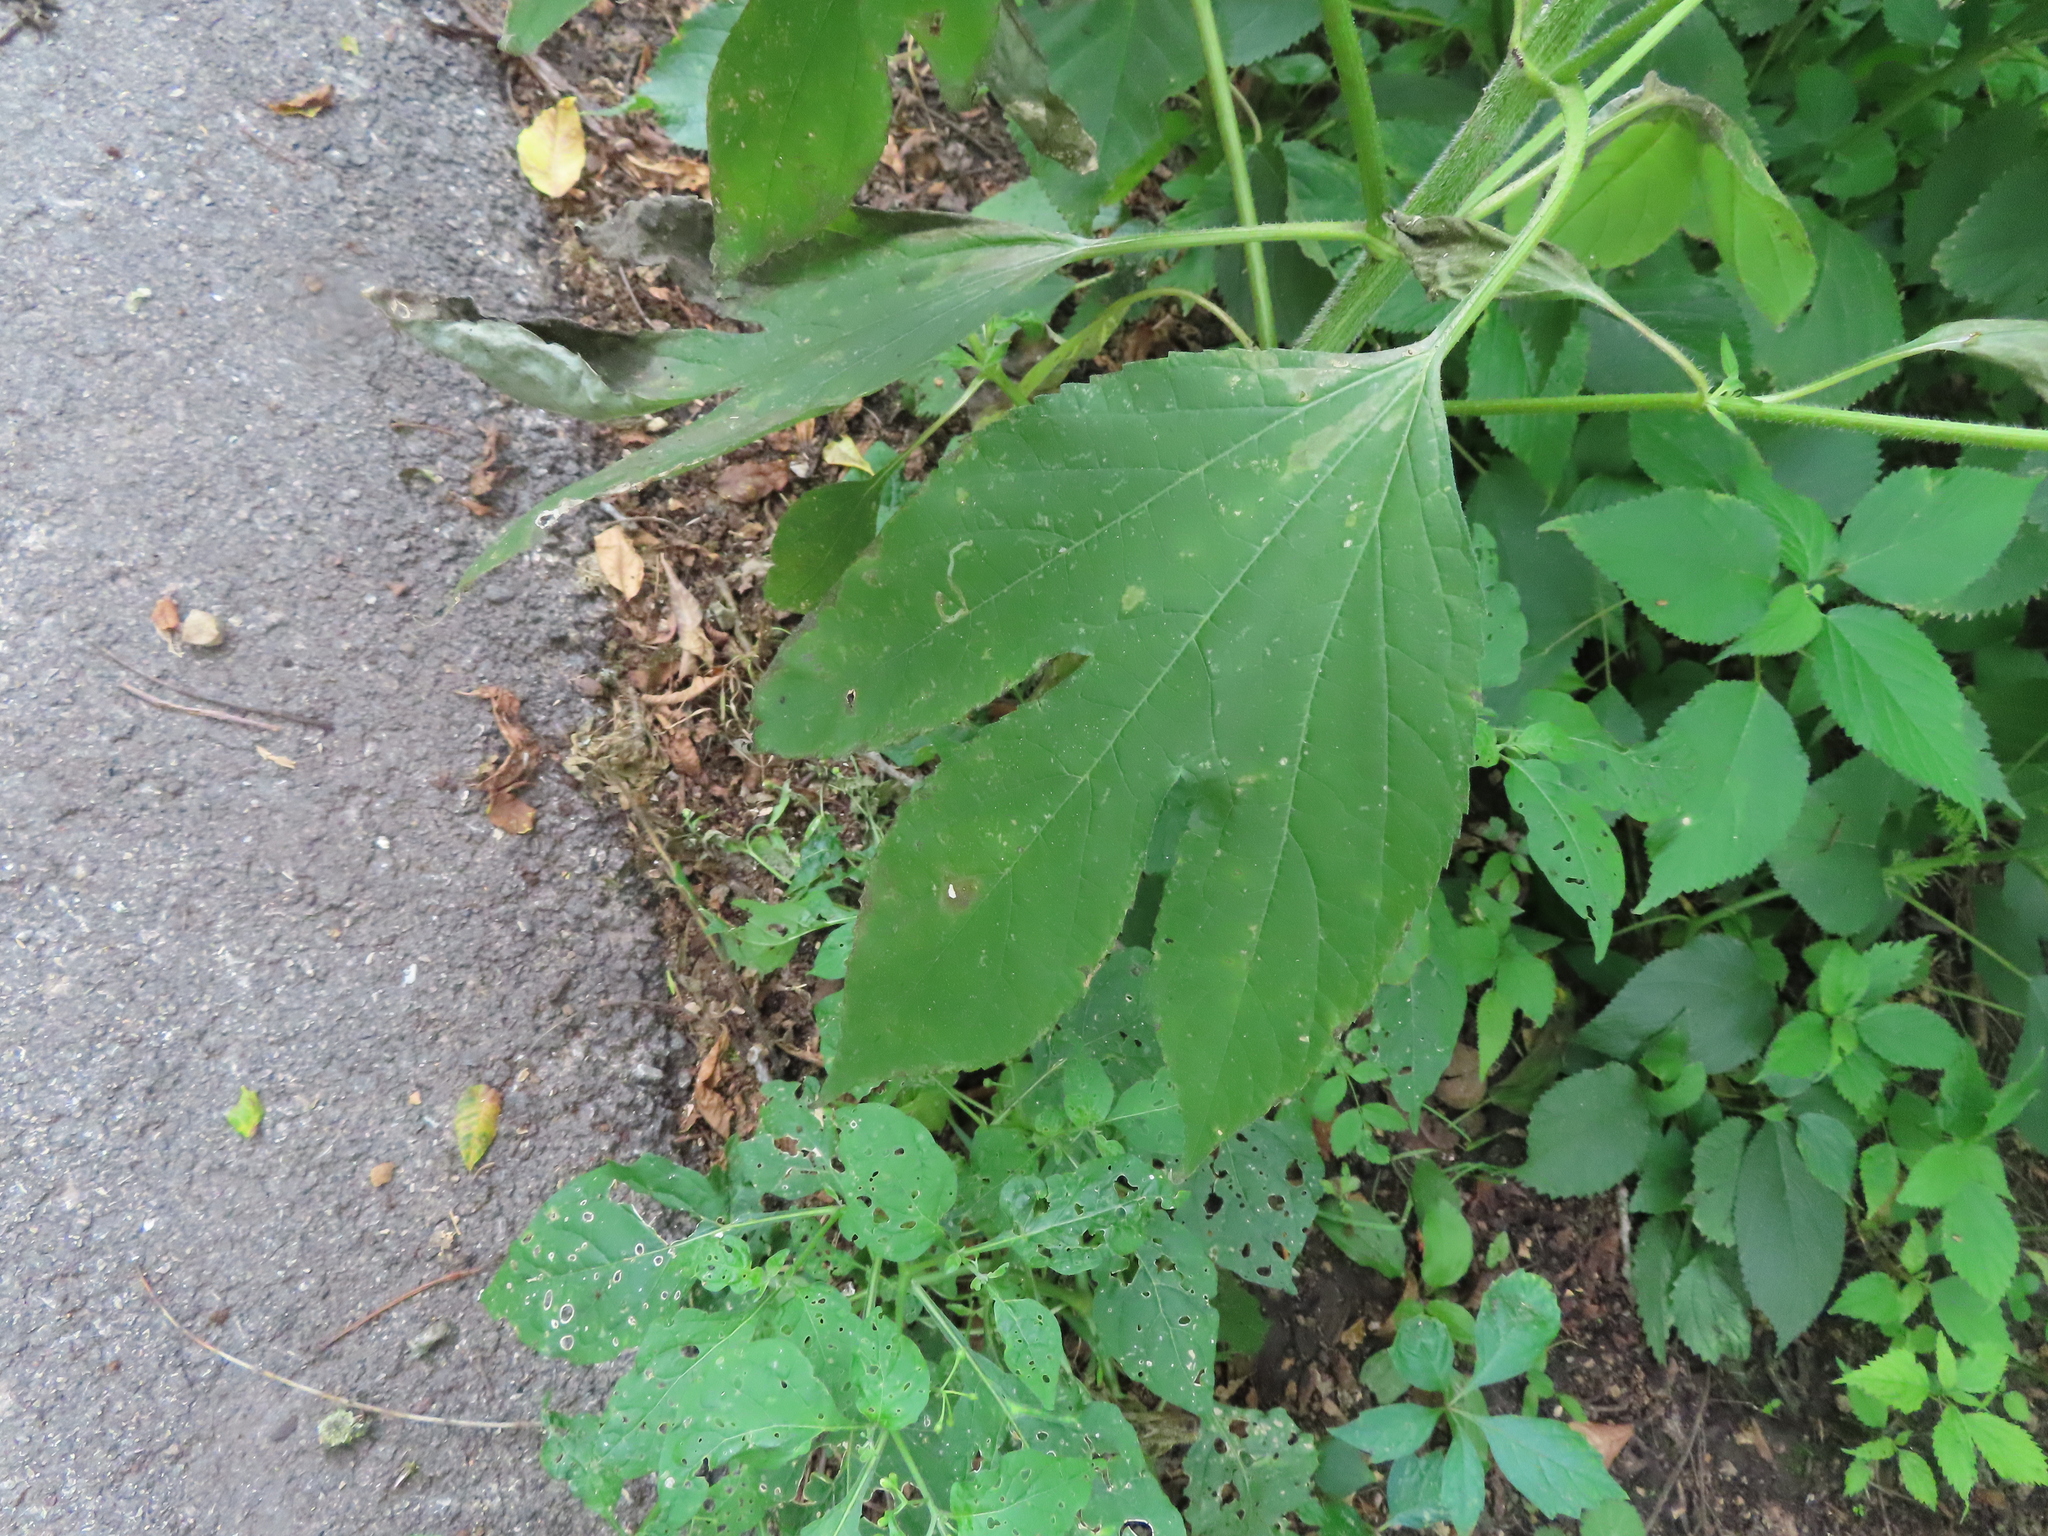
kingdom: Plantae
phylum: Tracheophyta
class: Magnoliopsida
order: Asterales
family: Asteraceae
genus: Ambrosia
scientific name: Ambrosia trifida
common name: Giant ragweed
